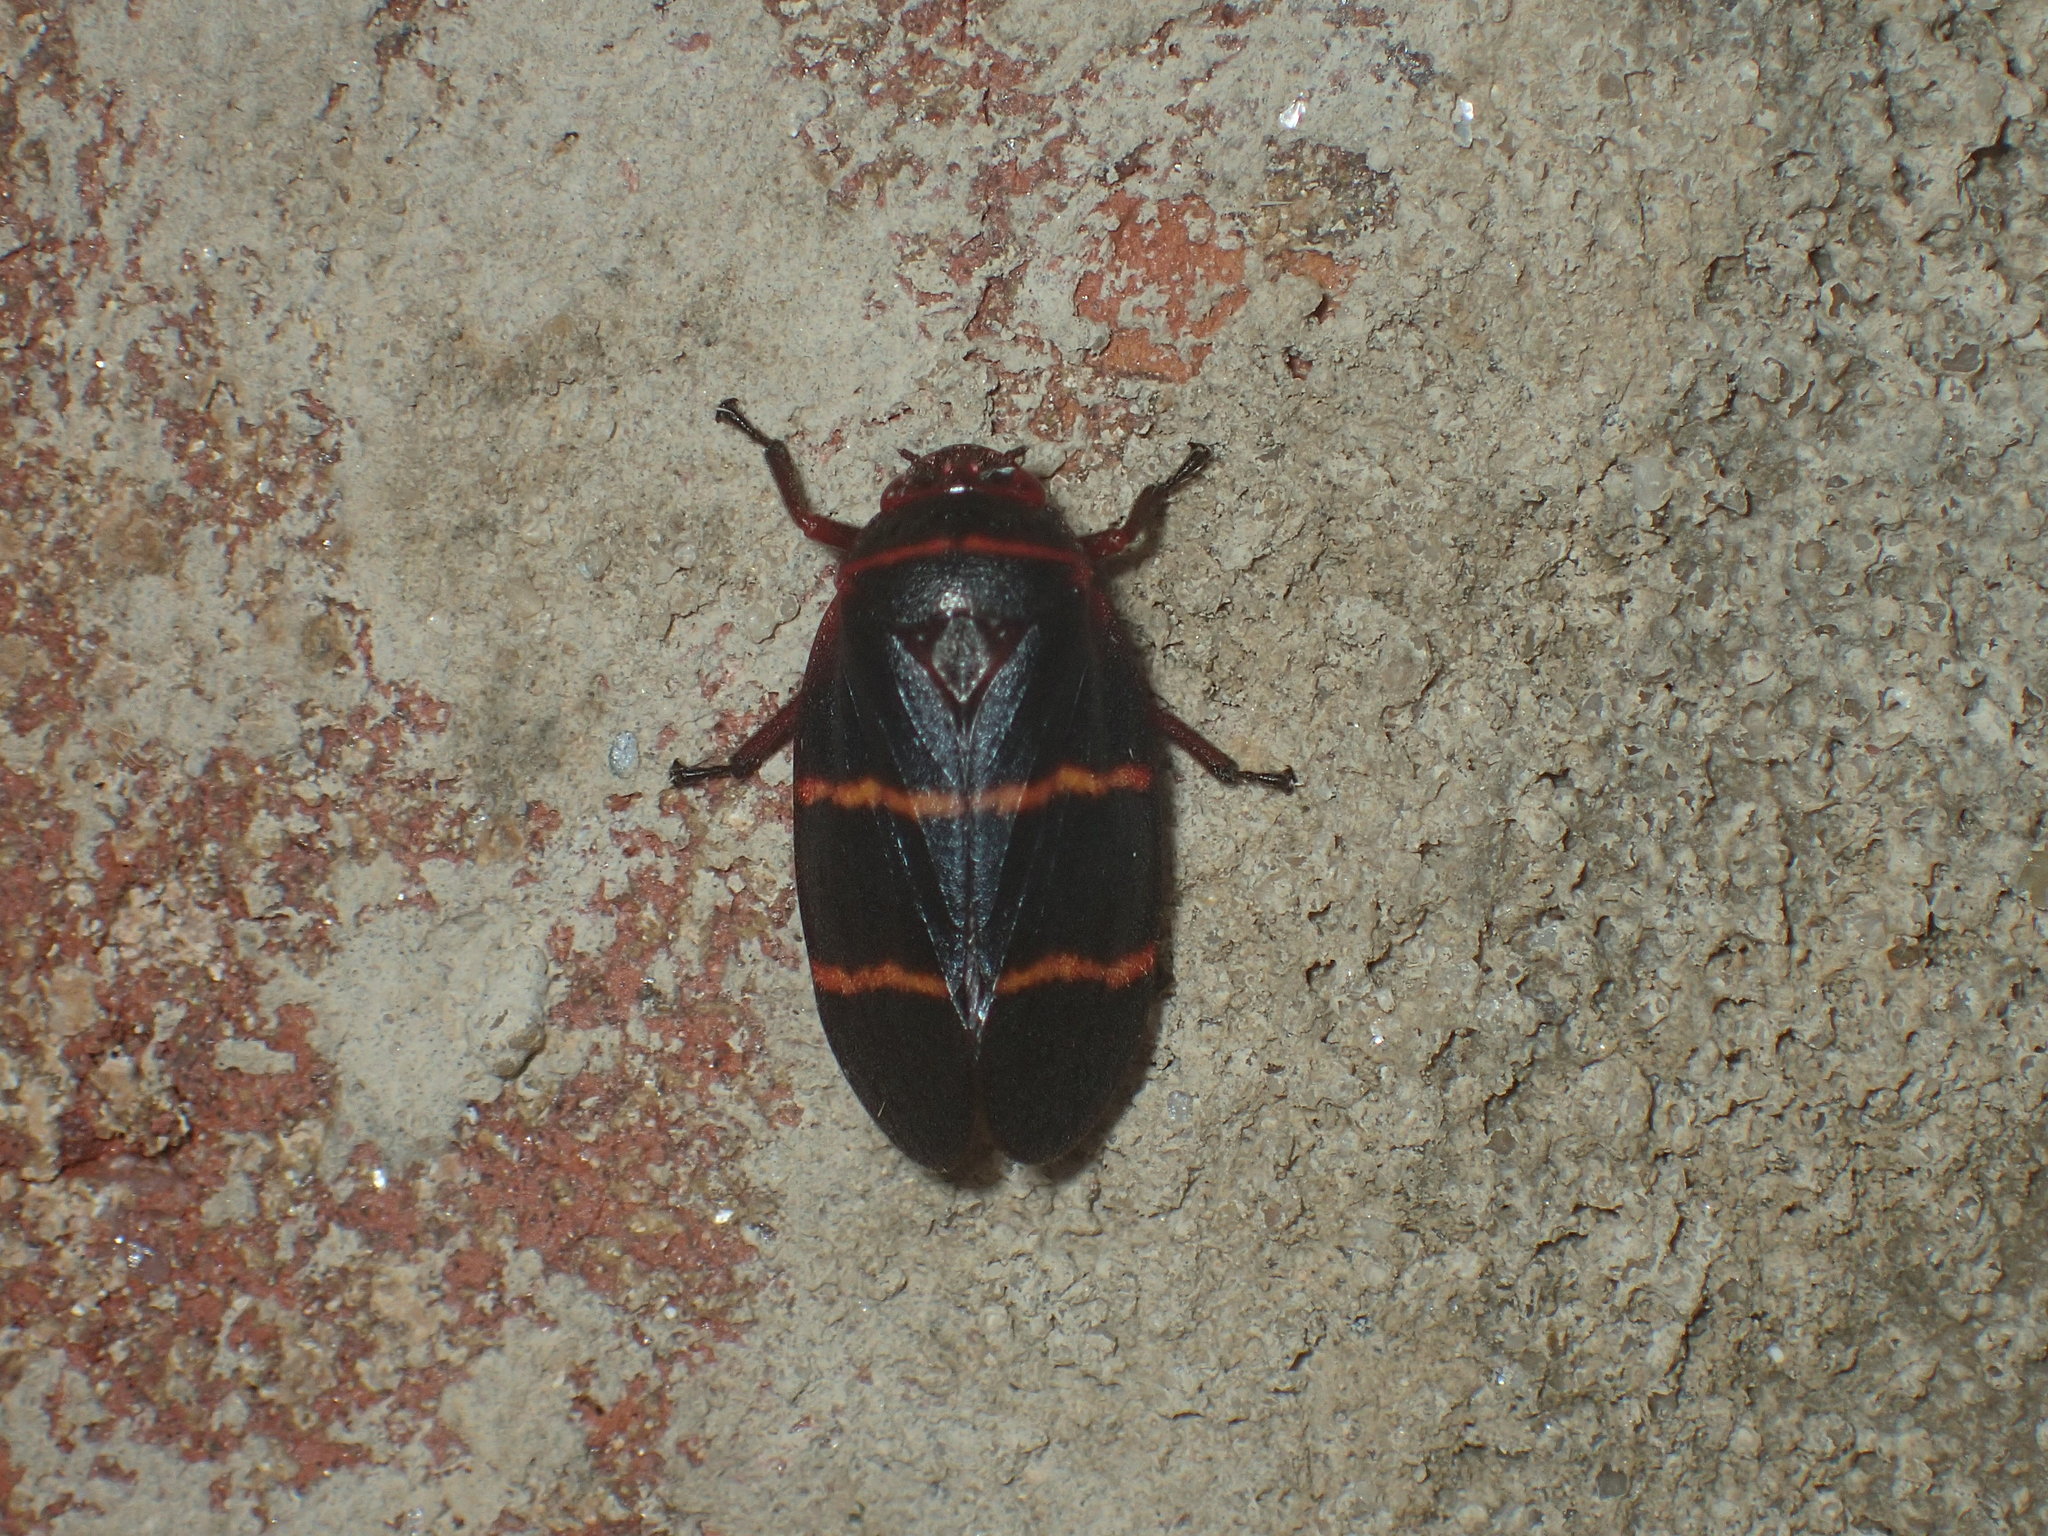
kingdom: Animalia
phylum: Arthropoda
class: Insecta
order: Hemiptera
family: Cercopidae
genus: Prosapia
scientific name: Prosapia bicincta
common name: Twolined spittlebug
